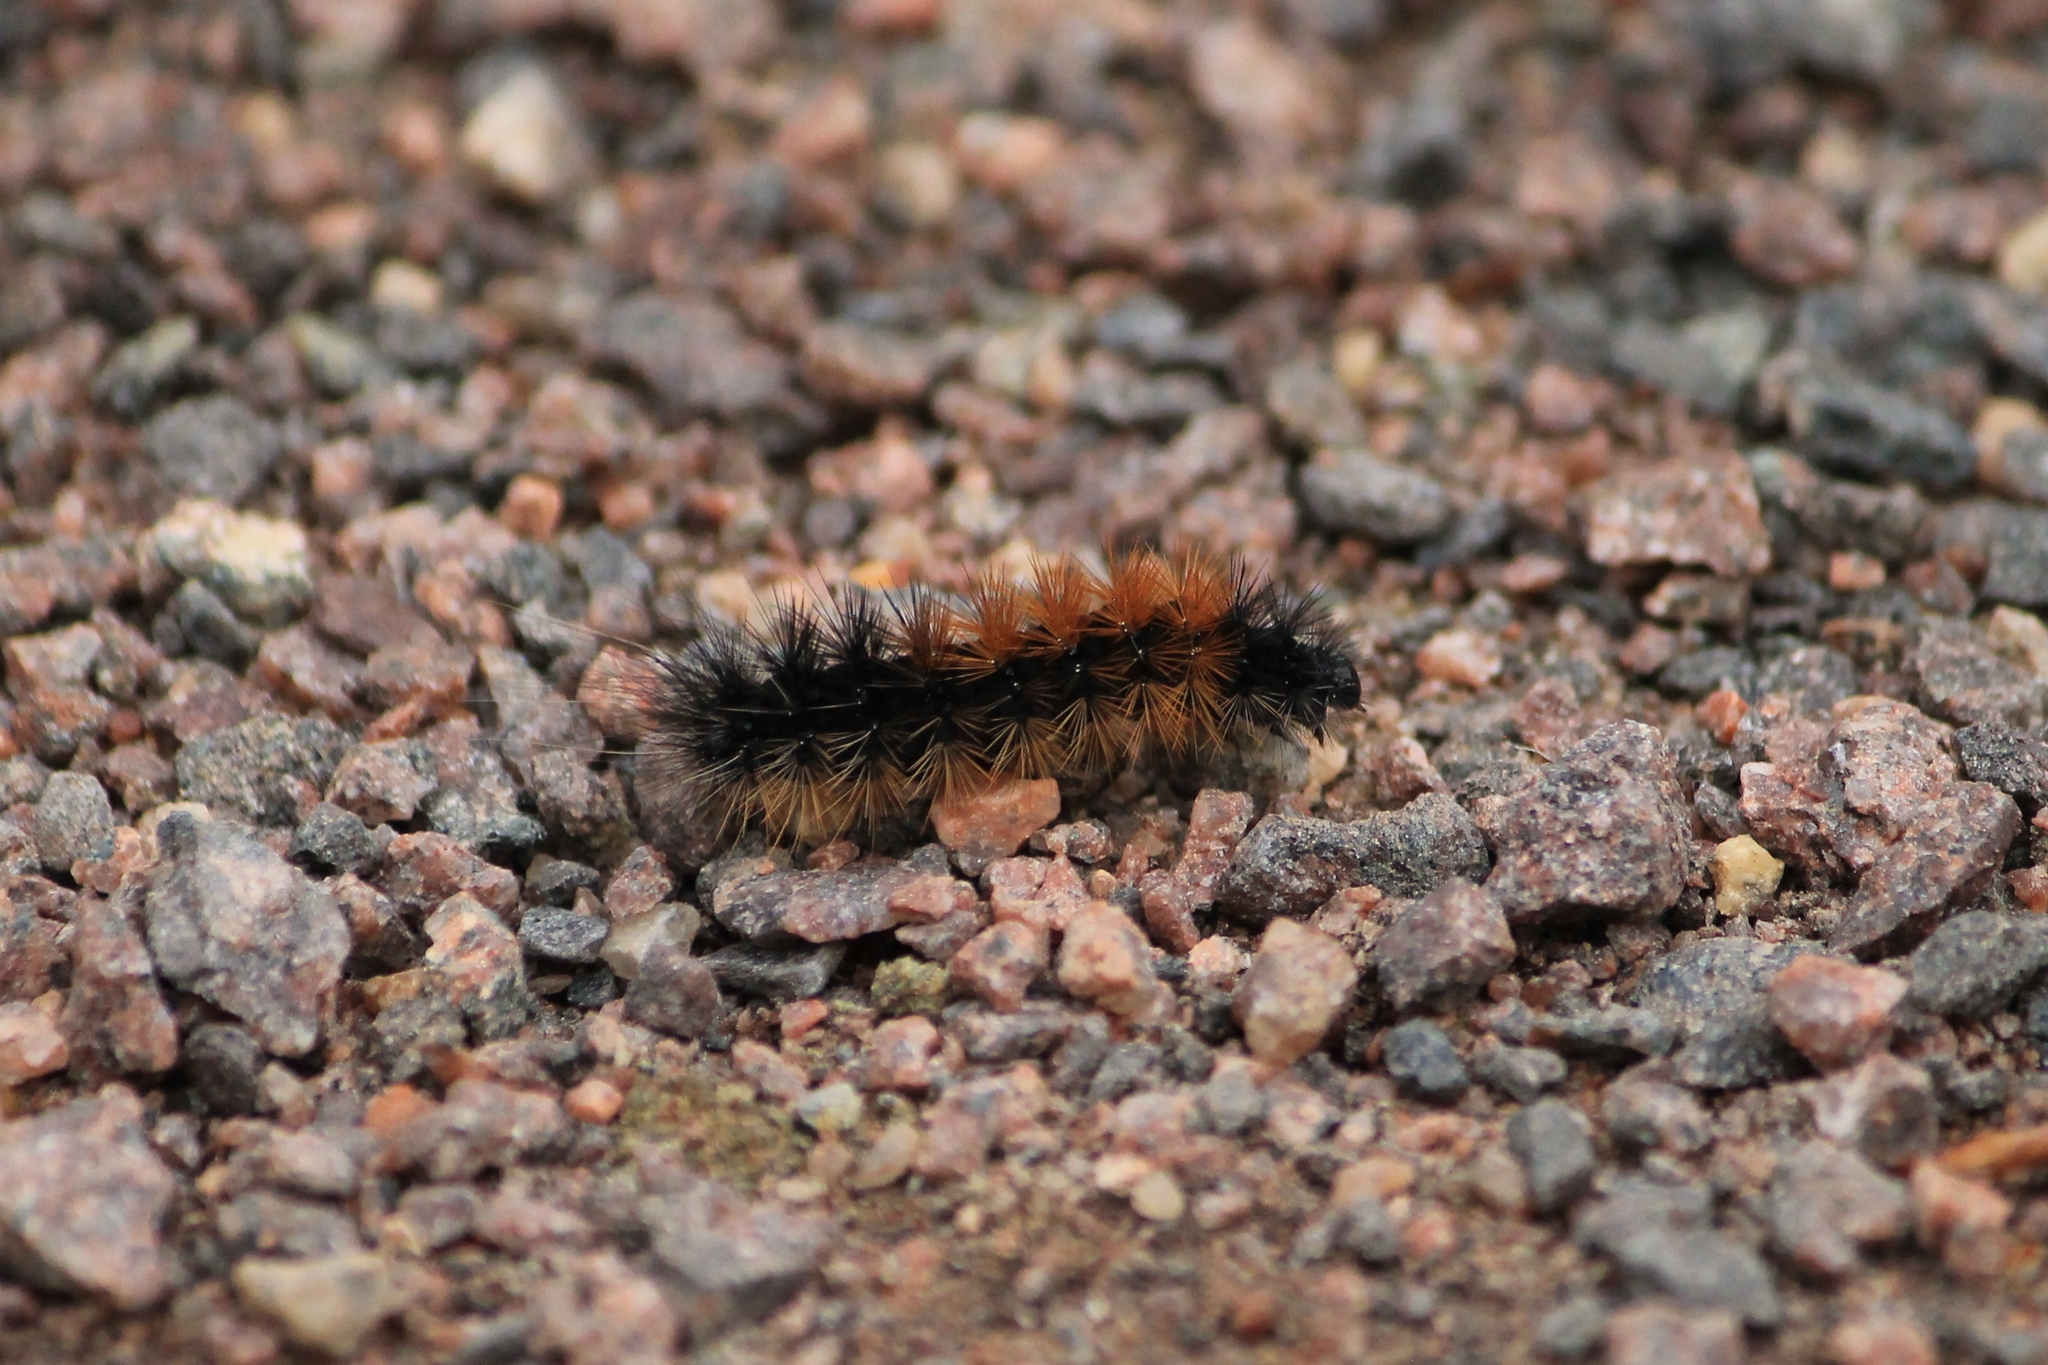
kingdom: Animalia
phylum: Arthropoda
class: Insecta
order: Lepidoptera
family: Erebidae
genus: Parasemia
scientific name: Parasemia plantaginis
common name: Wood tiger
